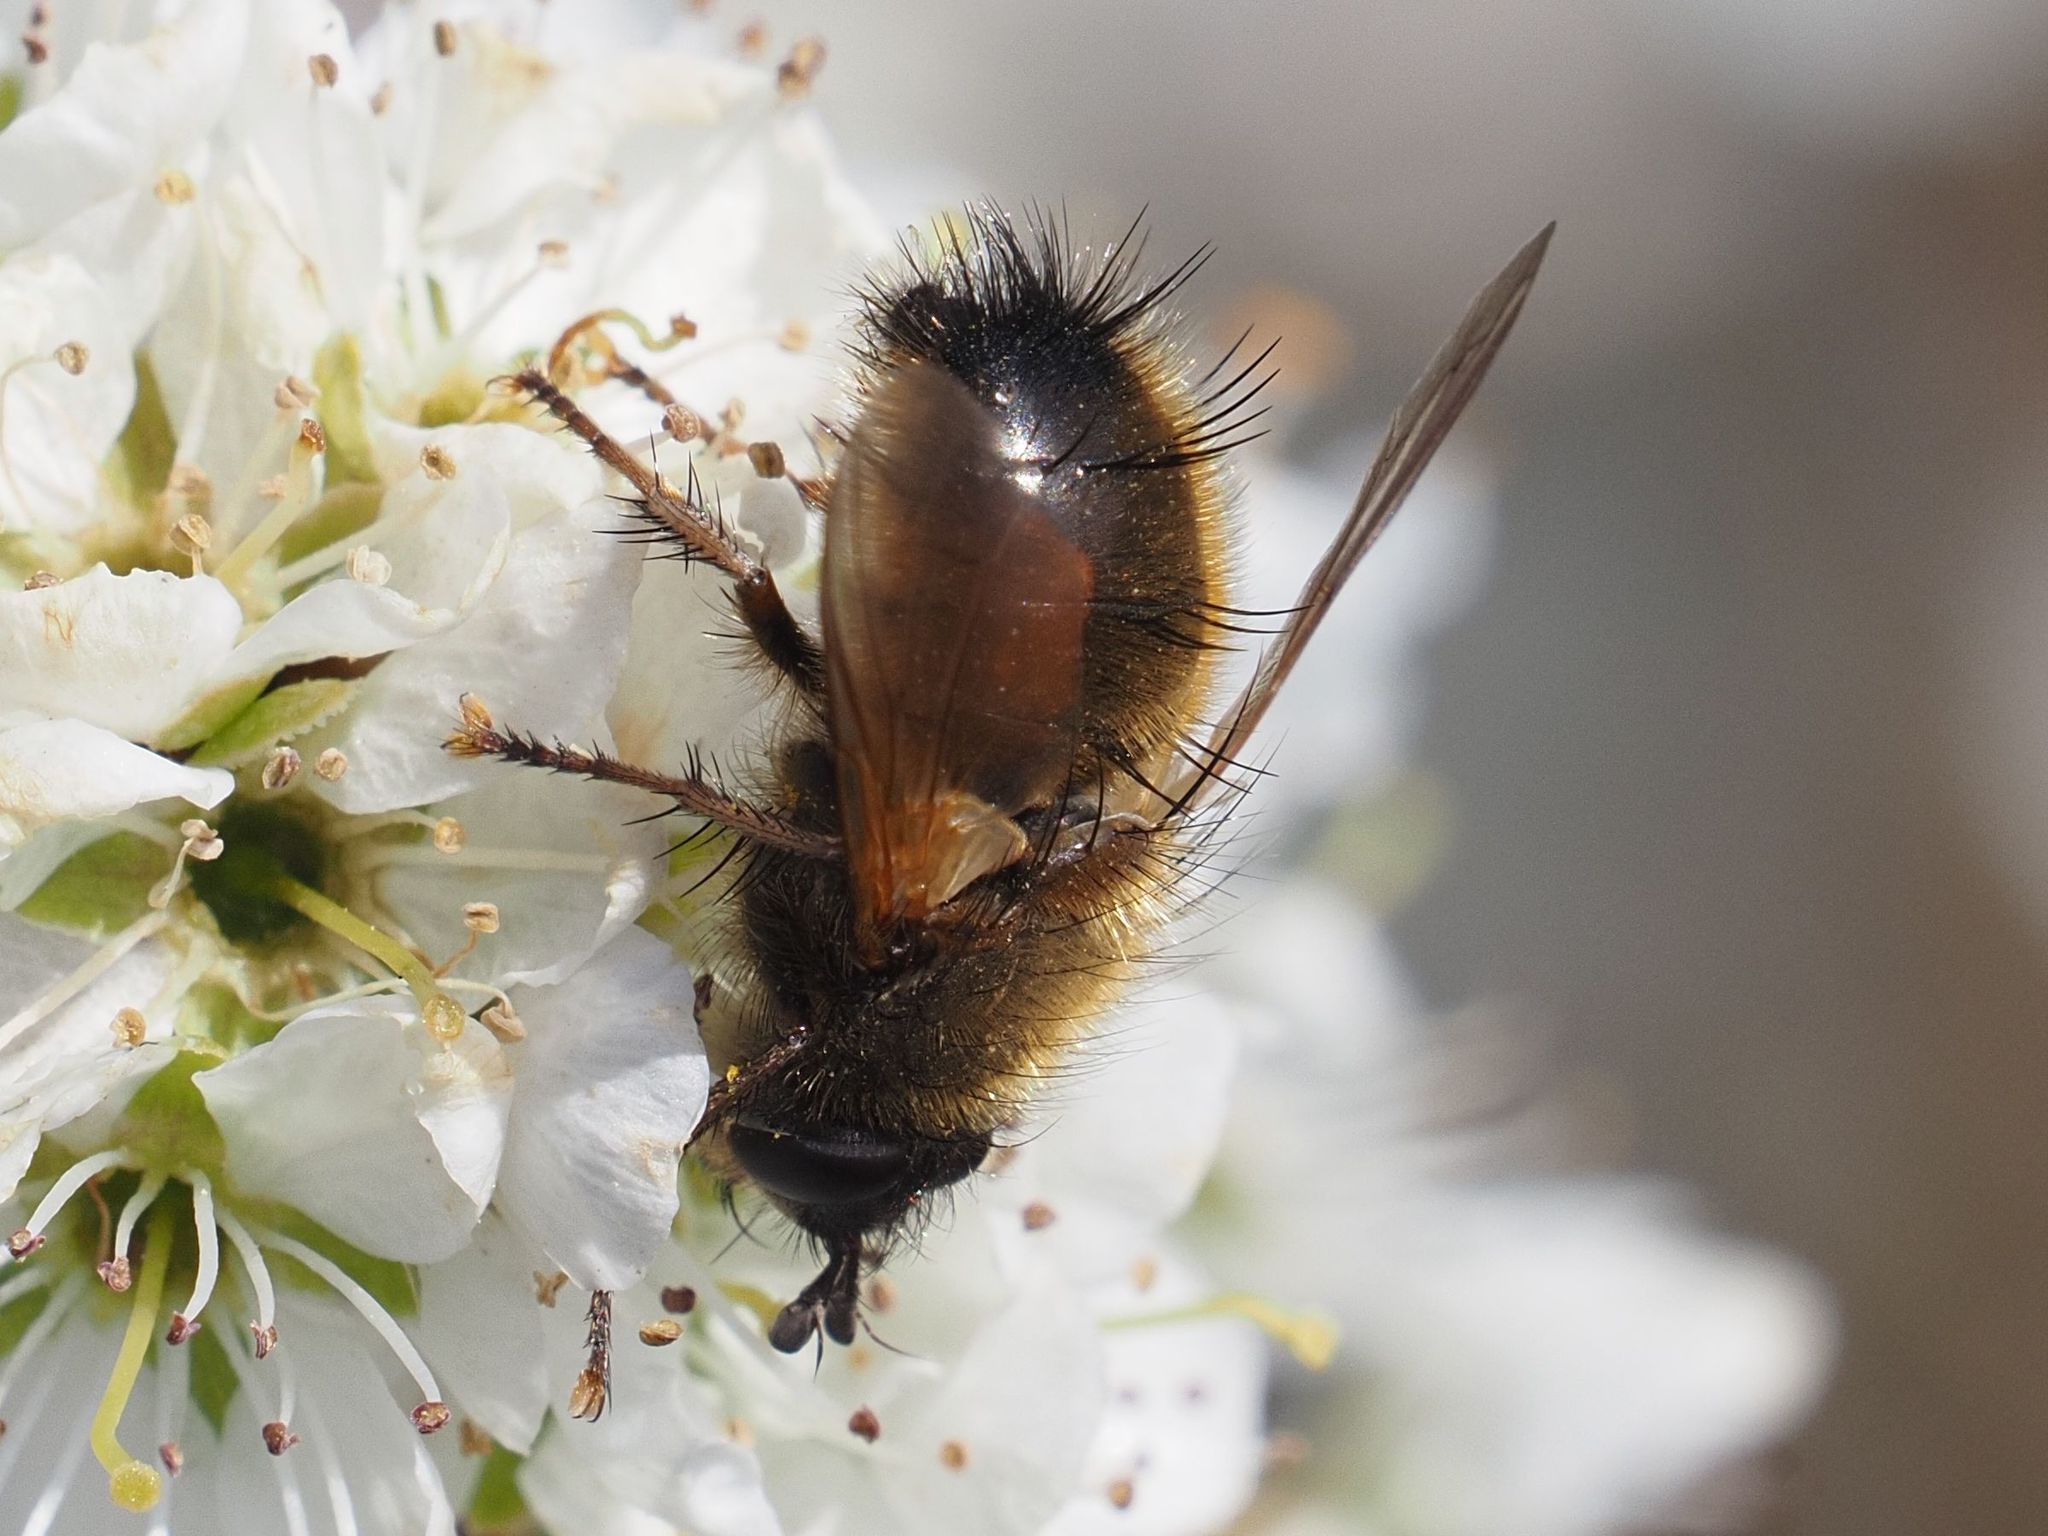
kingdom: Animalia
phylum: Arthropoda
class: Insecta
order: Diptera
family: Tachinidae
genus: Tachina
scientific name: Tachina lurida
